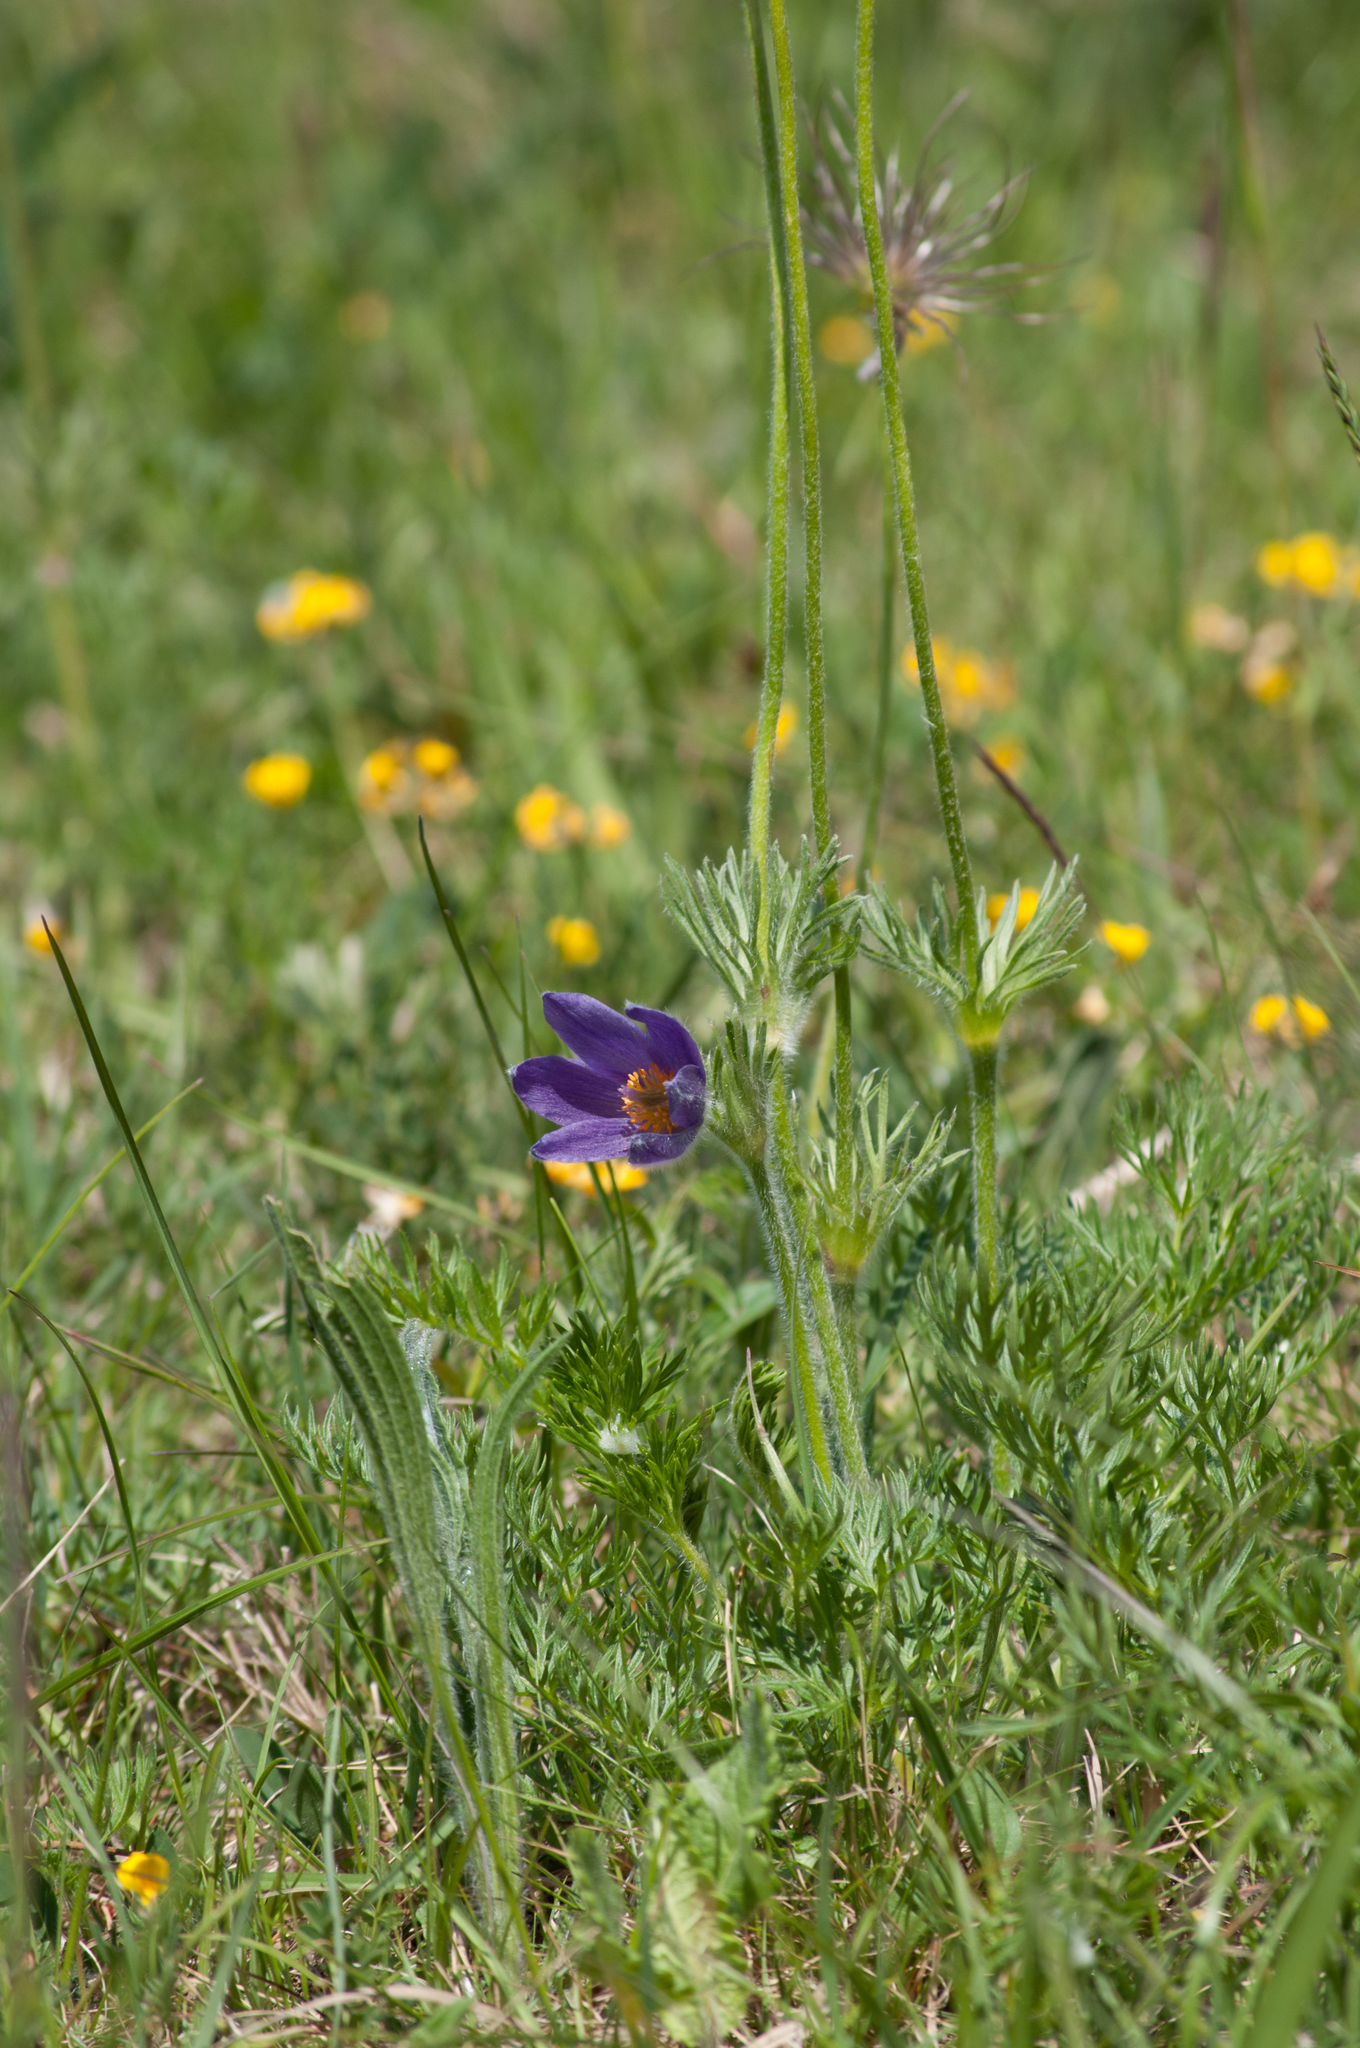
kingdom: Plantae
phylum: Tracheophyta
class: Magnoliopsida
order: Ranunculales
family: Ranunculaceae
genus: Pulsatilla
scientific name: Pulsatilla vulgaris
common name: Pasqueflower
